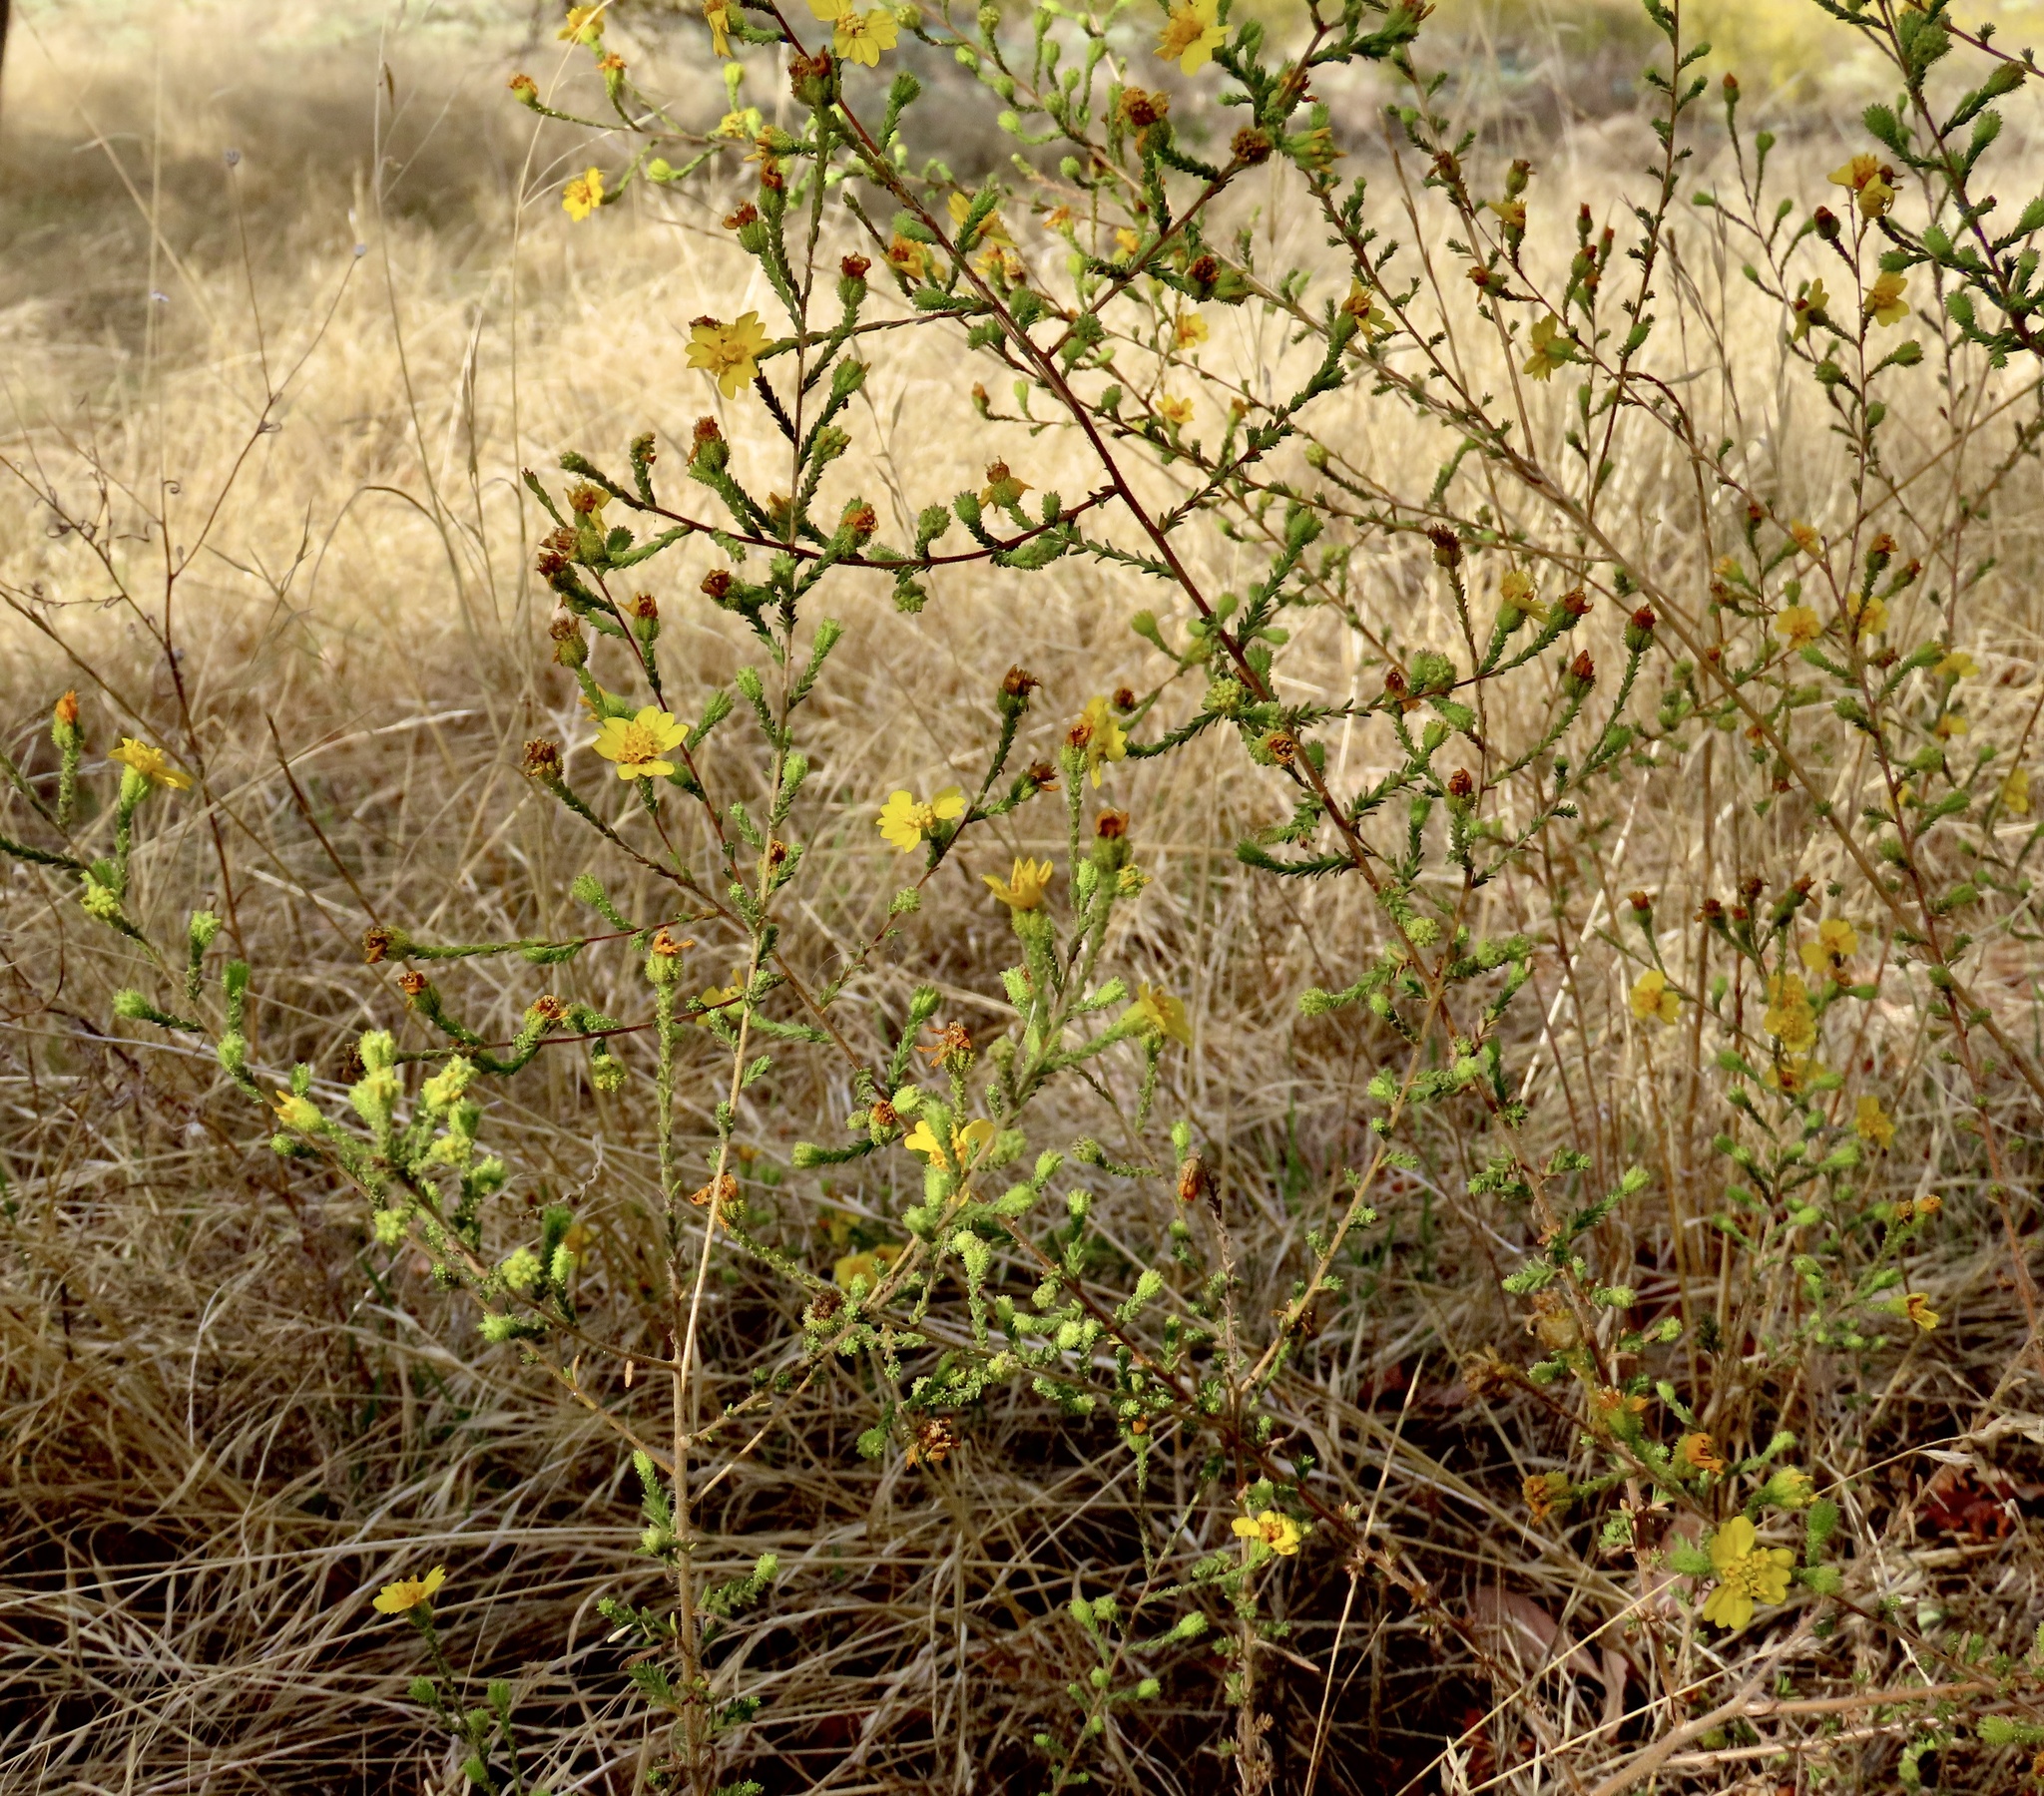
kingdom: Plantae
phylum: Tracheophyta
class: Magnoliopsida
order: Asterales
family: Asteraceae
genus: Holocarpha
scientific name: Holocarpha heermannii
